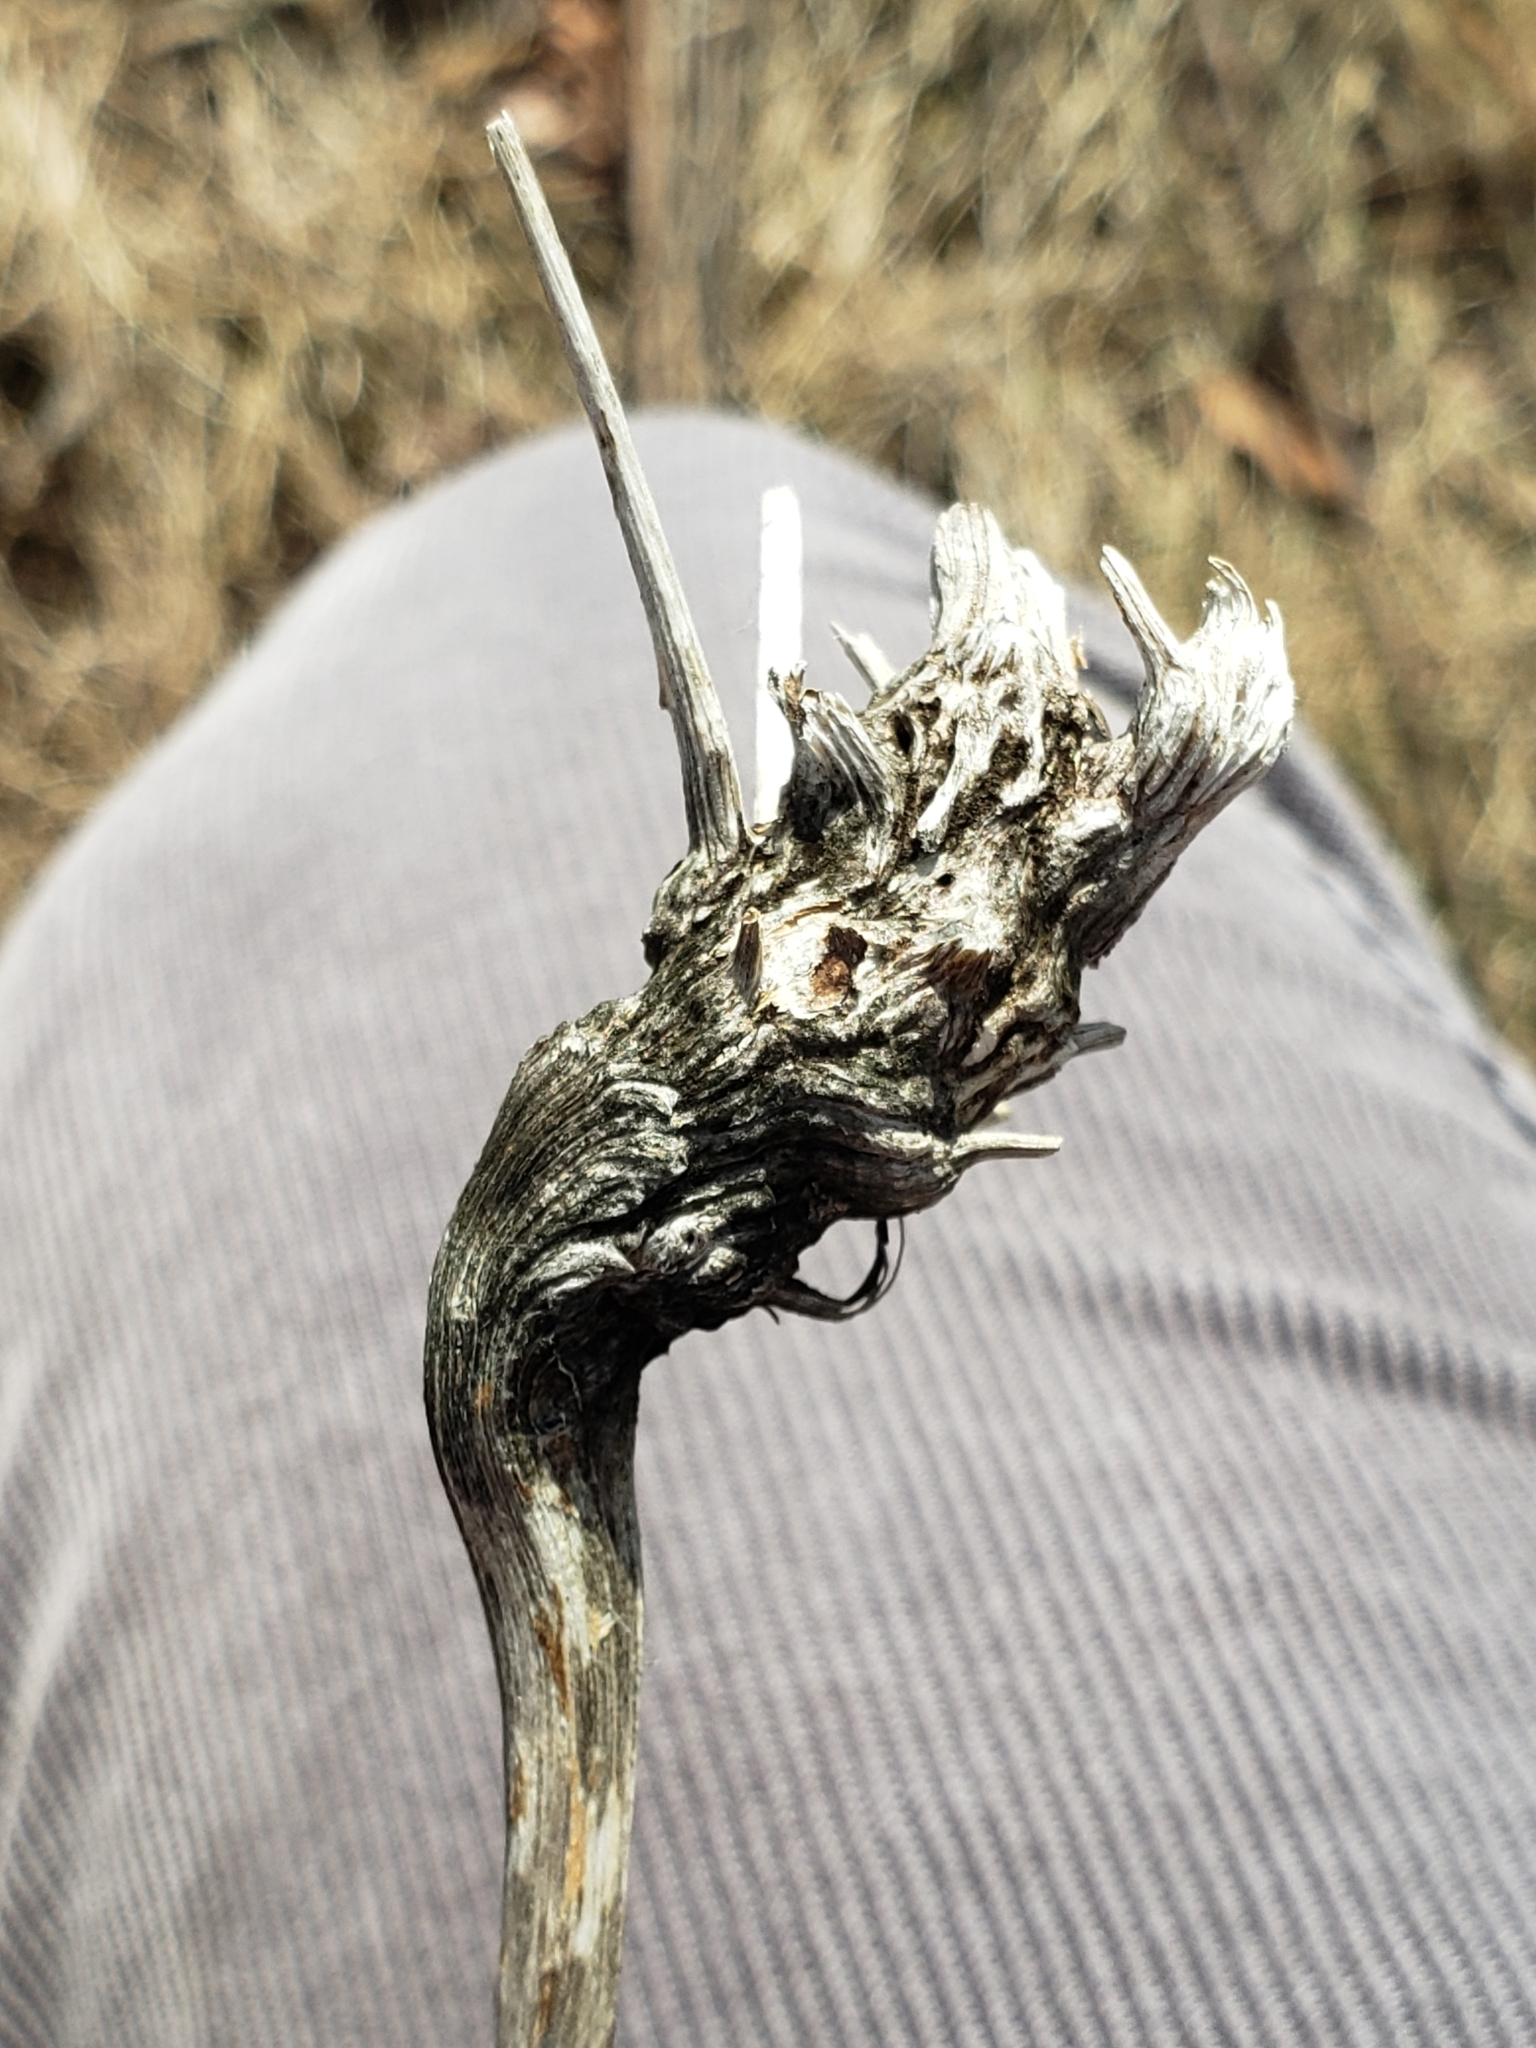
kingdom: Animalia
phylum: Arthropoda
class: Insecta
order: Hymenoptera
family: Cynipidae
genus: Aulacidea
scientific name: Aulacidea
